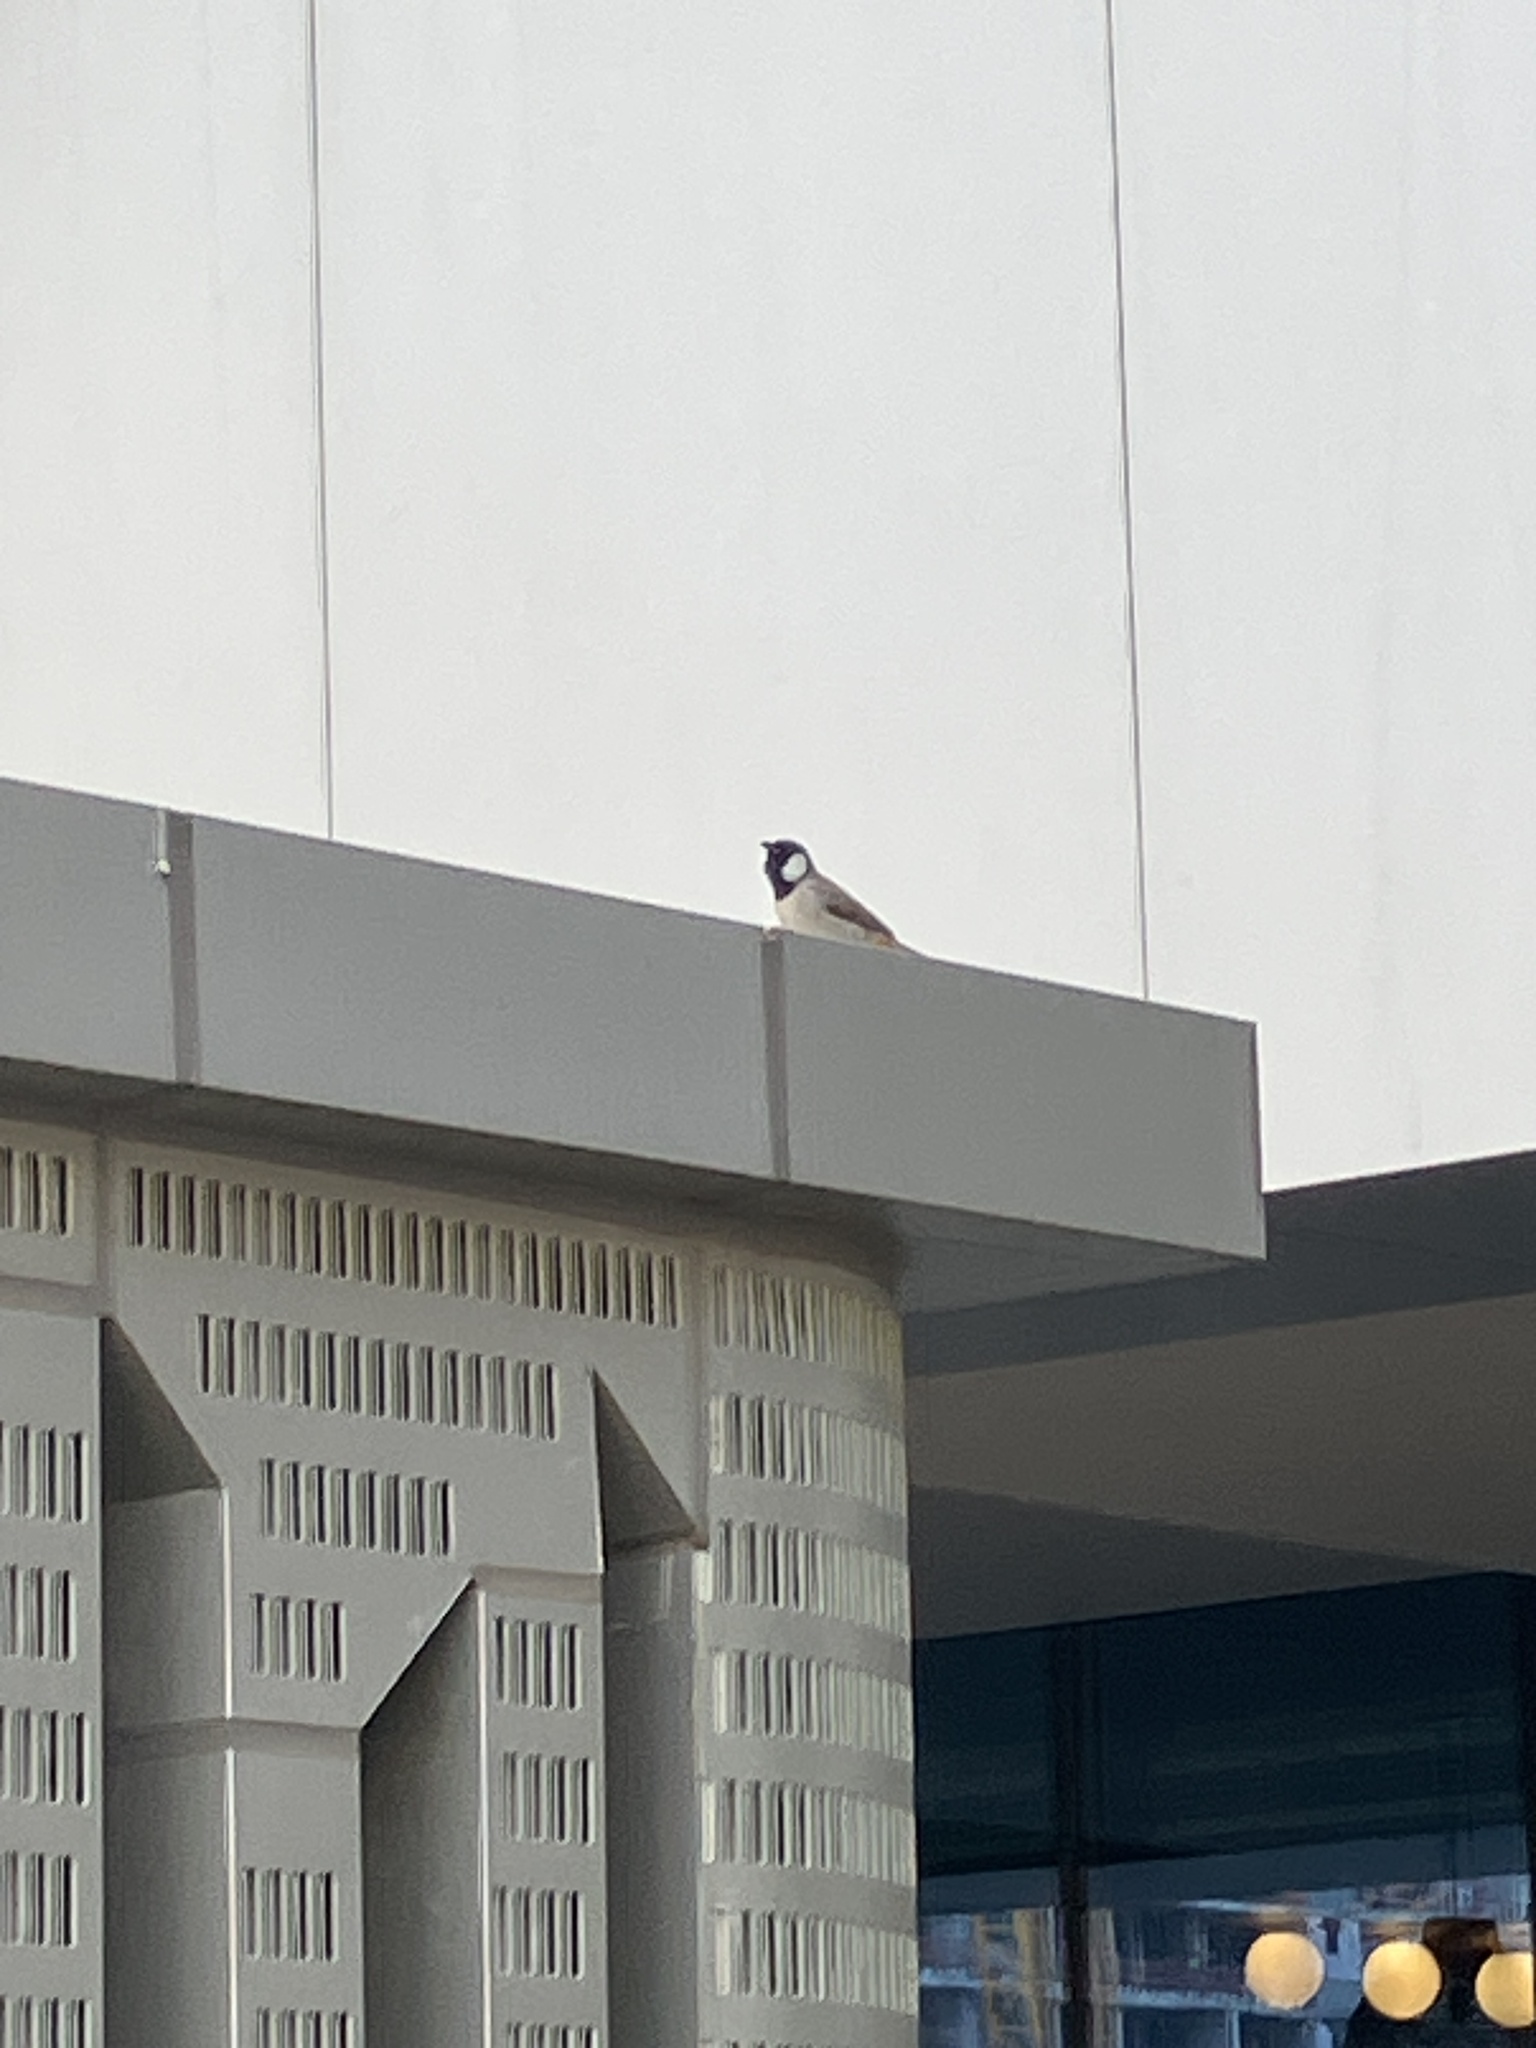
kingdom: Animalia
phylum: Chordata
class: Aves
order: Passeriformes
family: Pycnonotidae
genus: Pycnonotus
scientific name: Pycnonotus leucotis
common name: White-eared bulbul
